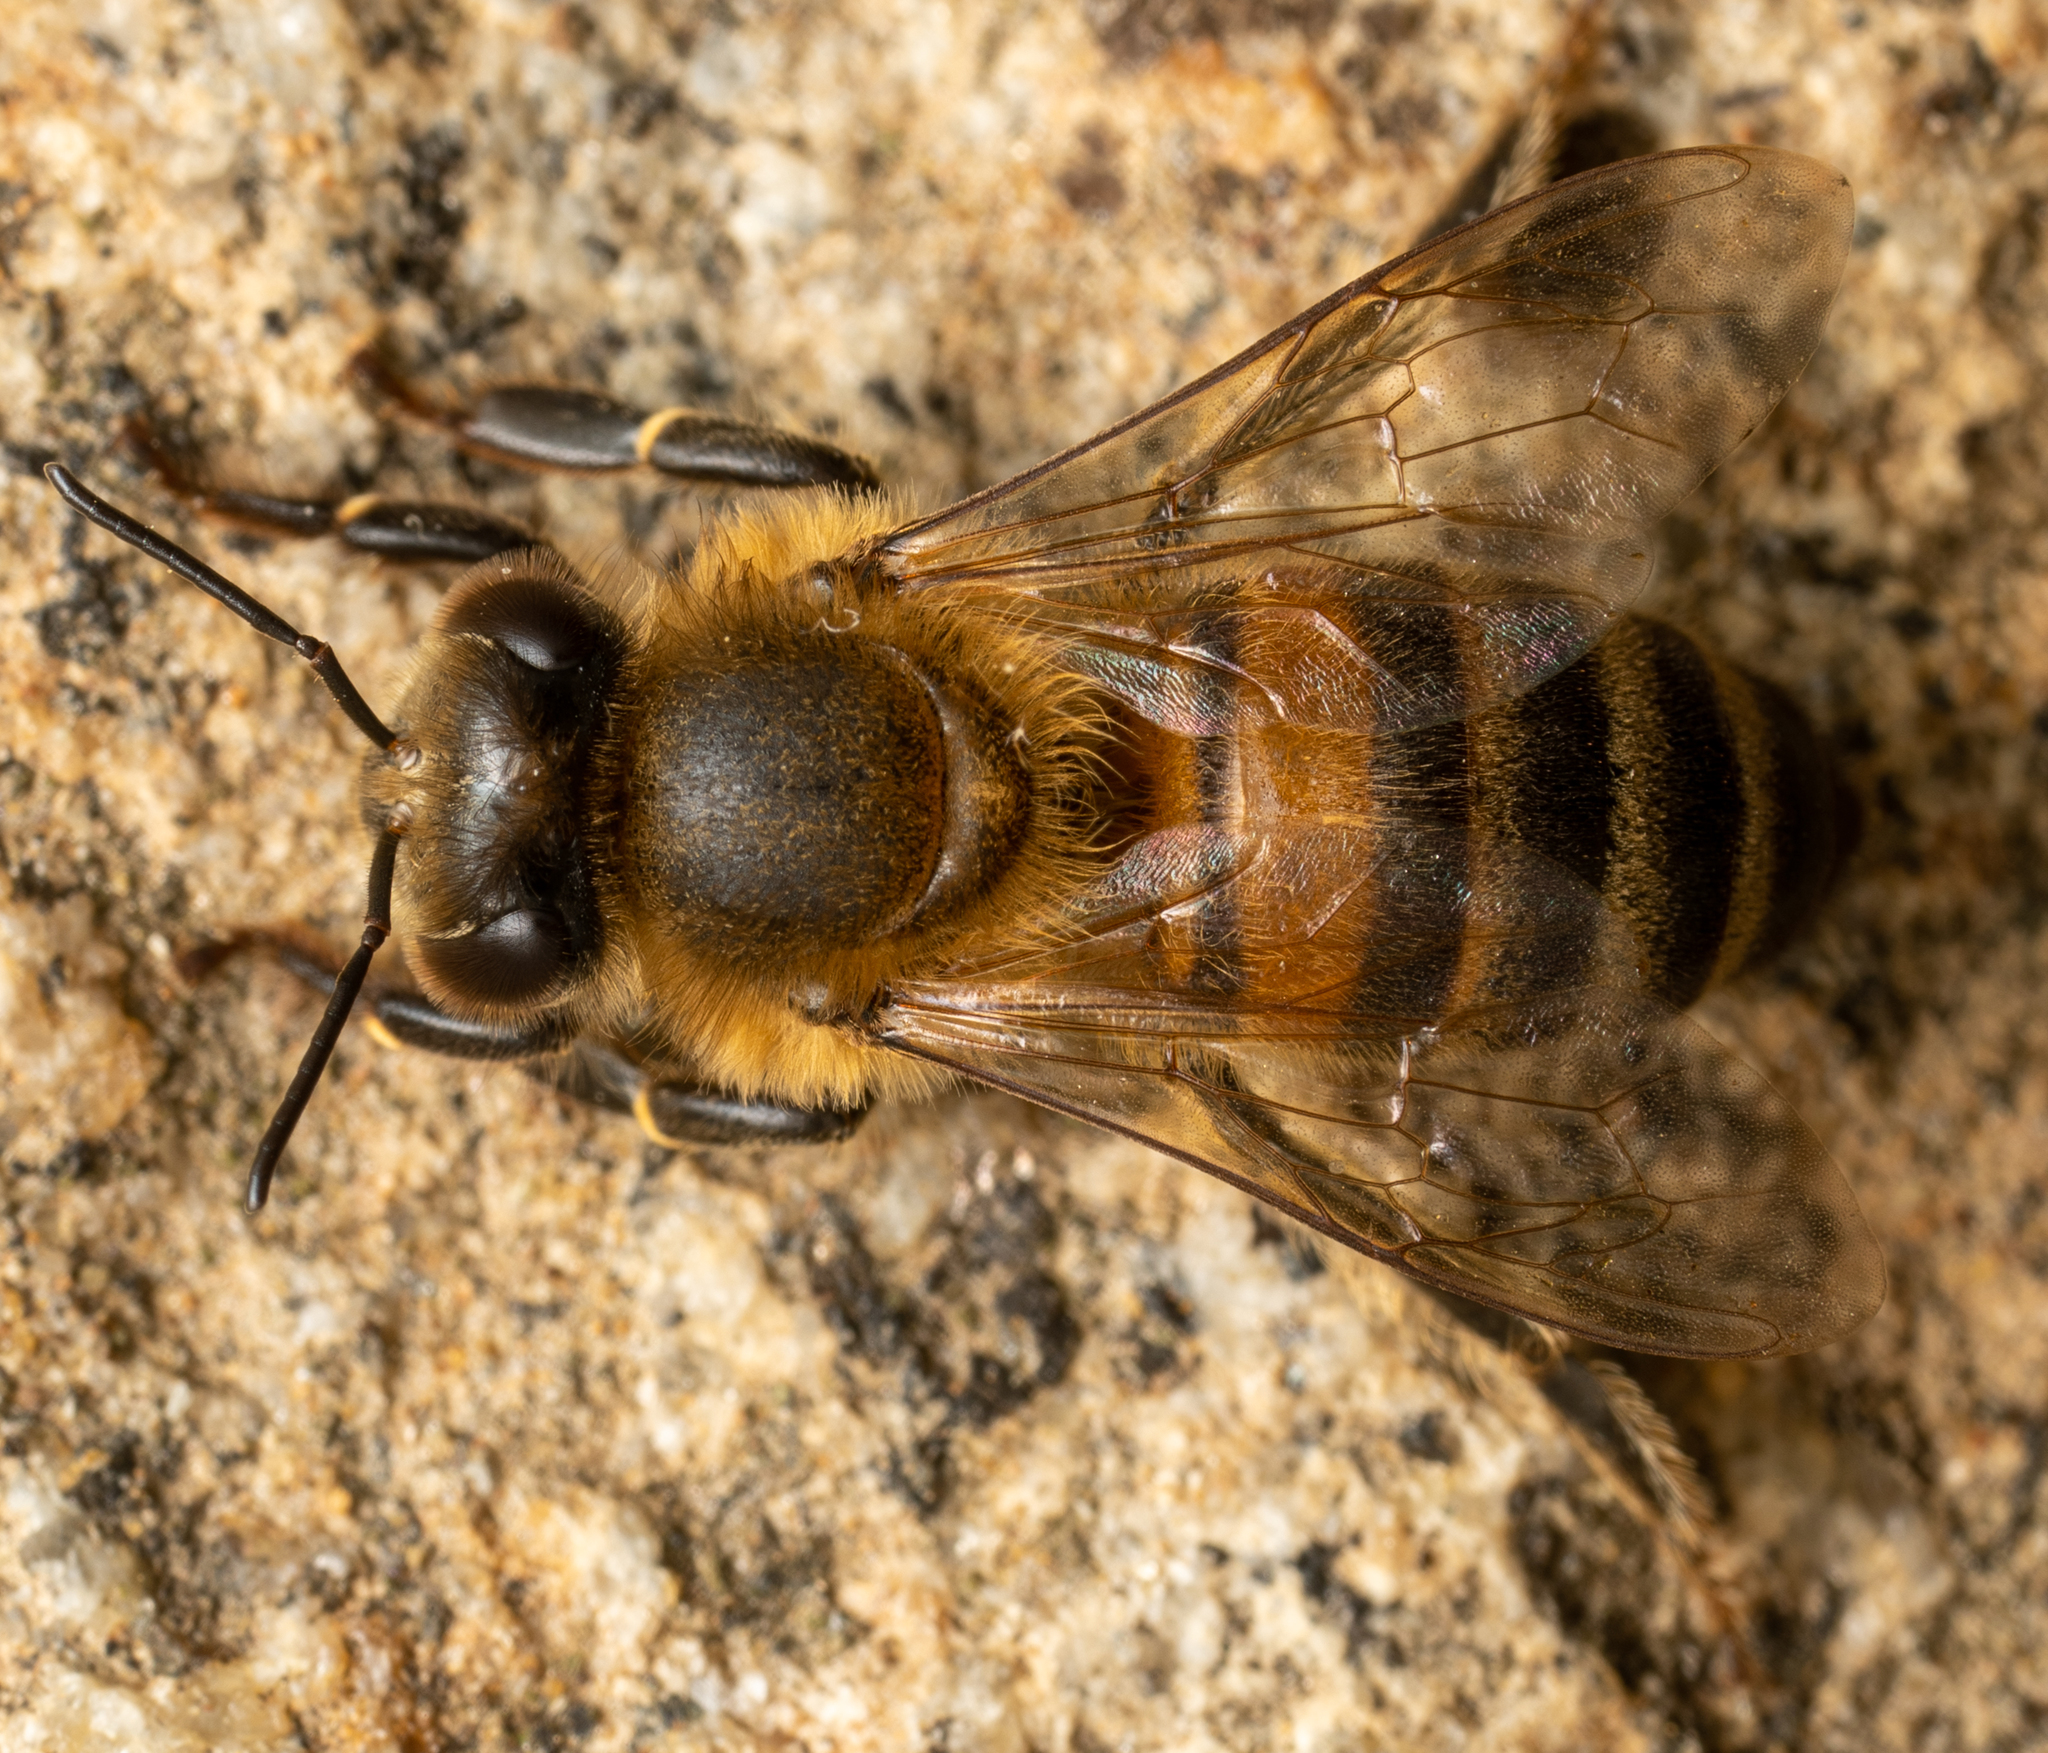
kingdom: Animalia
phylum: Arthropoda
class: Insecta
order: Hymenoptera
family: Apidae
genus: Apis
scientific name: Apis mellifera
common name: Honey bee
